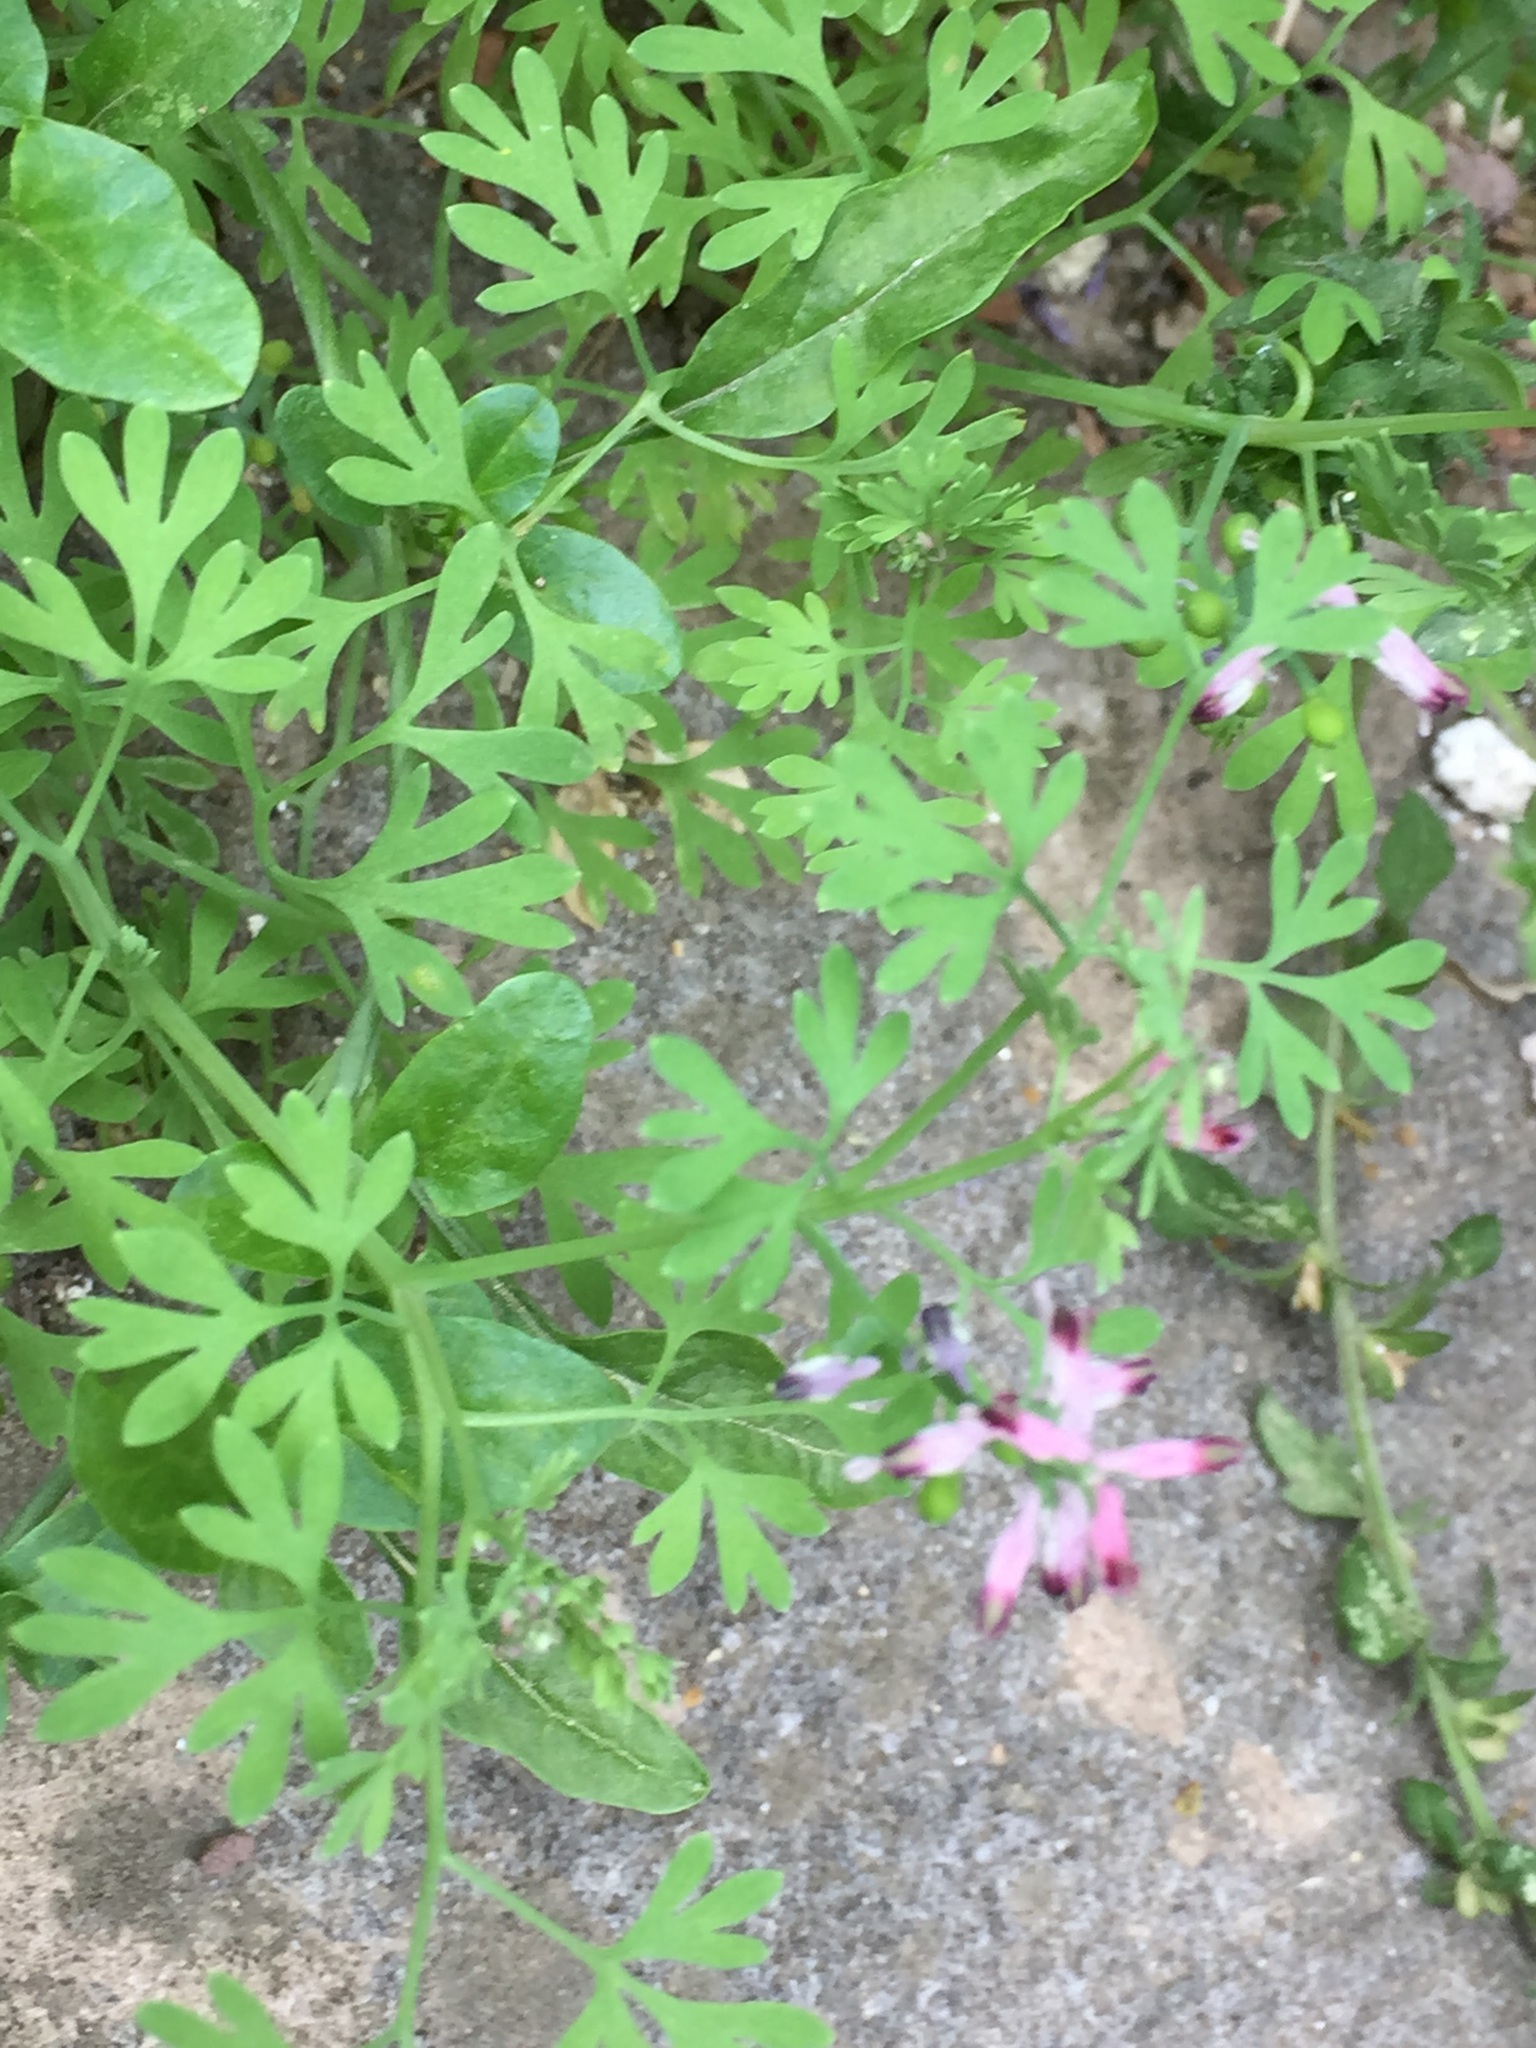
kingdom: Plantae
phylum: Tracheophyta
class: Magnoliopsida
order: Ranunculales
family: Papaveraceae
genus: Fumaria
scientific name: Fumaria officinalis
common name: Common fumitory
